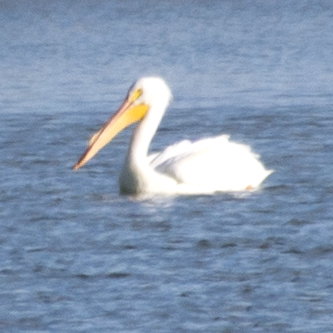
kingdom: Animalia
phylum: Chordata
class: Aves
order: Pelecaniformes
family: Pelecanidae
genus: Pelecanus
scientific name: Pelecanus erythrorhynchos
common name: American white pelican
